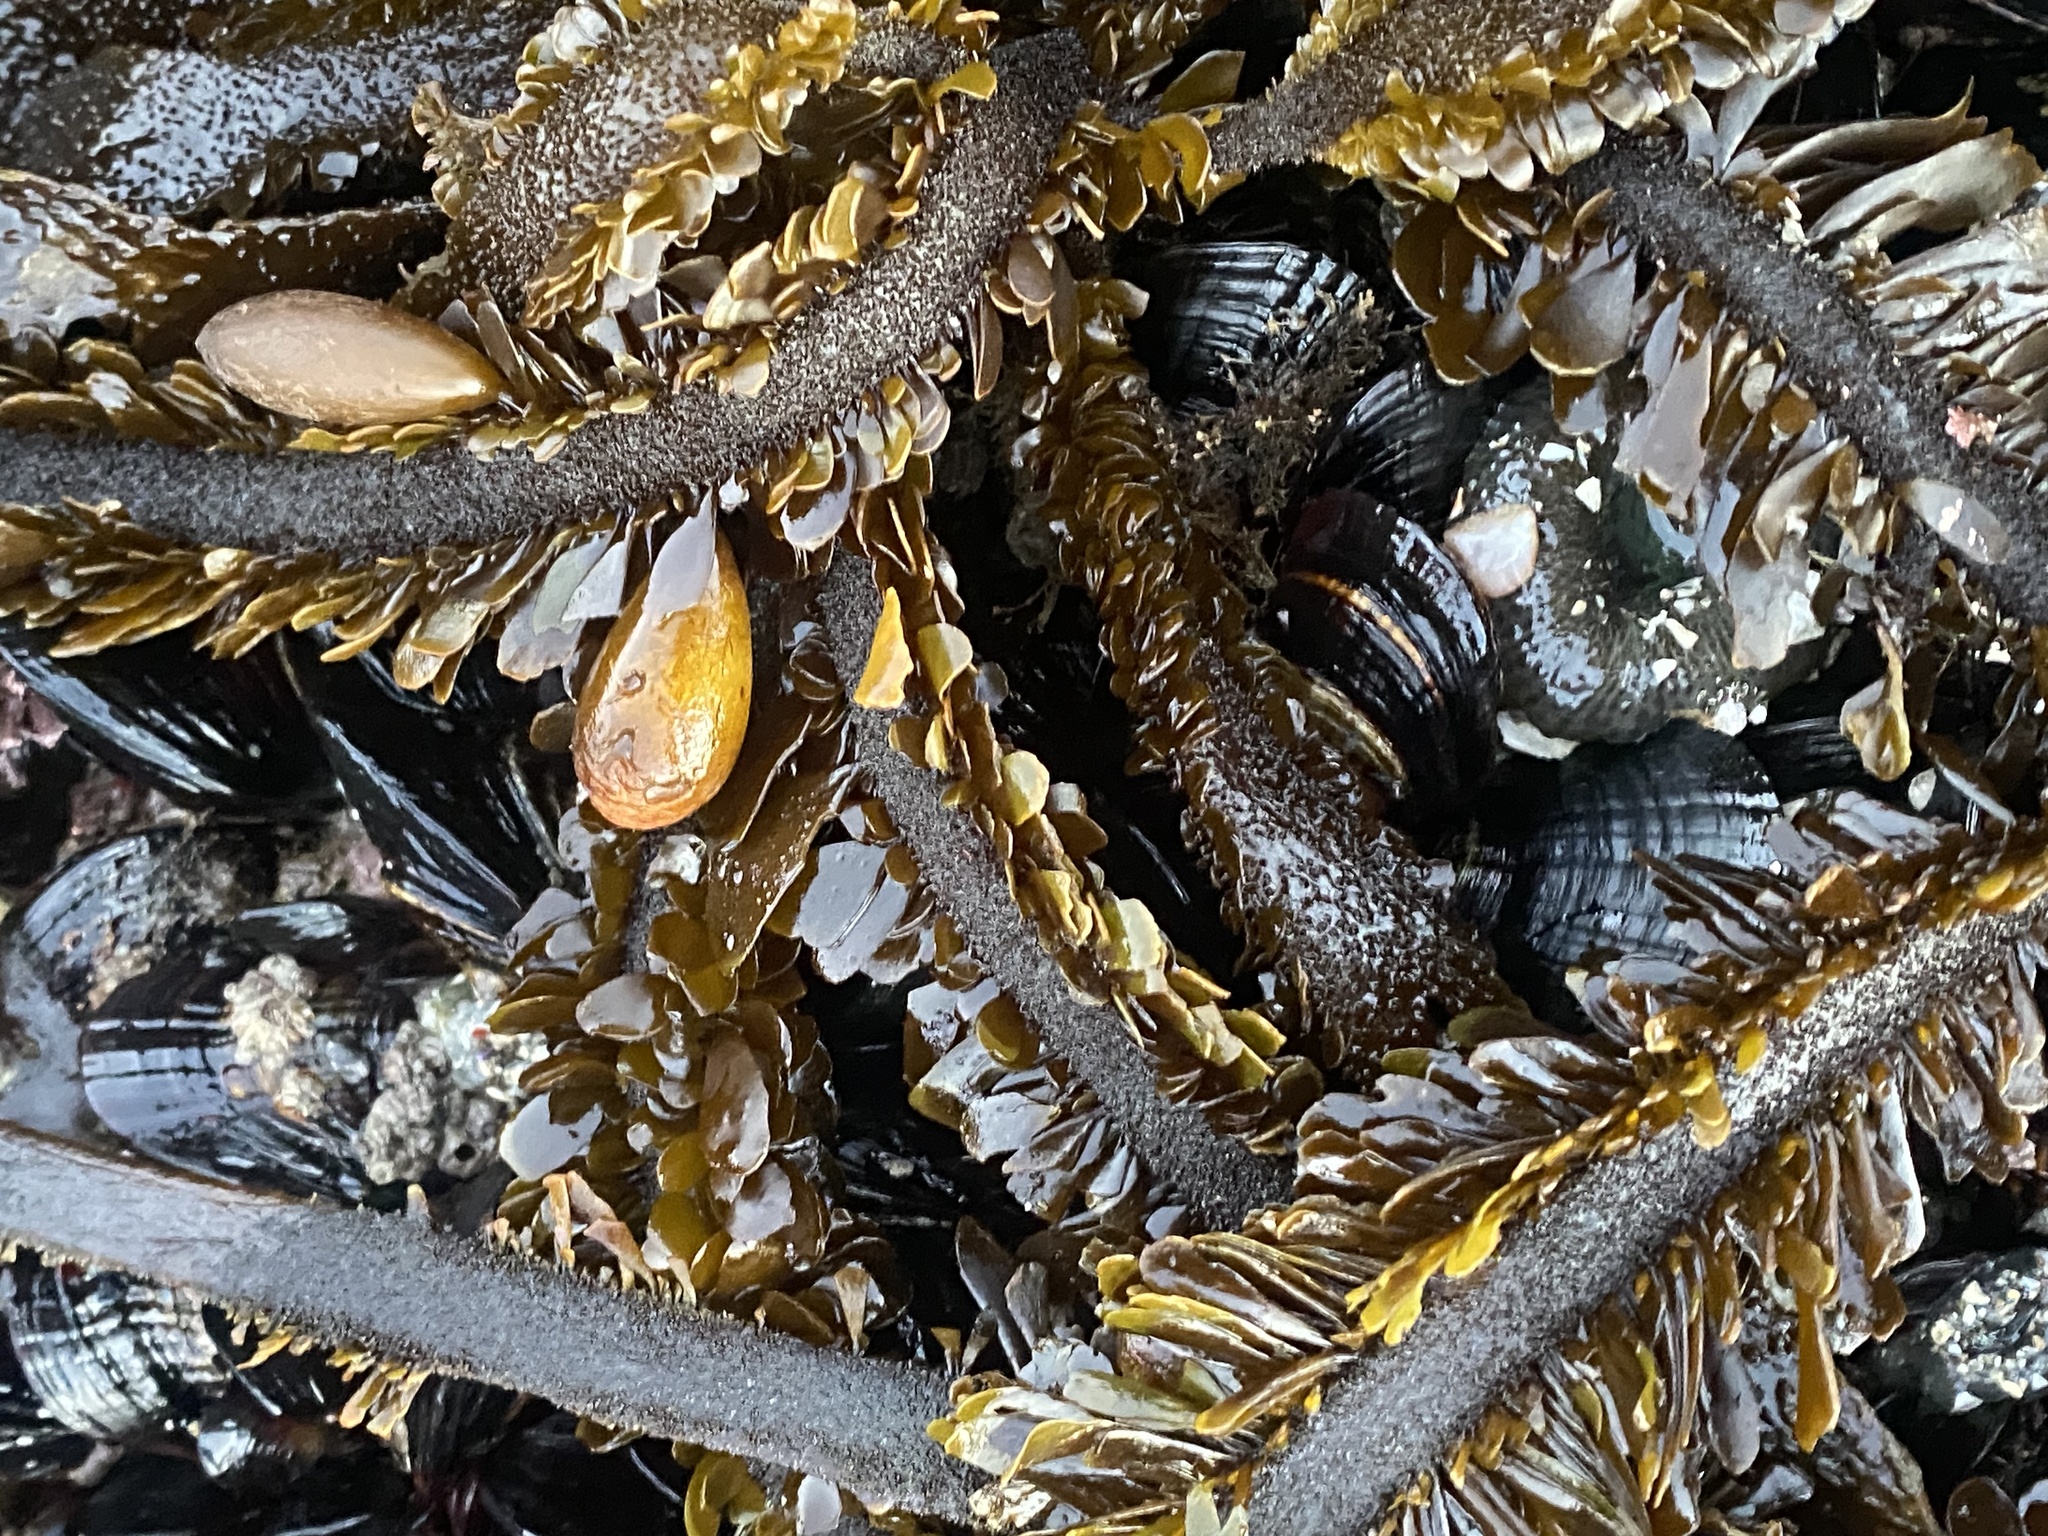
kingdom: Chromista
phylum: Ochrophyta
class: Phaeophyceae
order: Laminariales
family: Lessoniaceae
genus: Egregia
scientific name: Egregia menziesii
